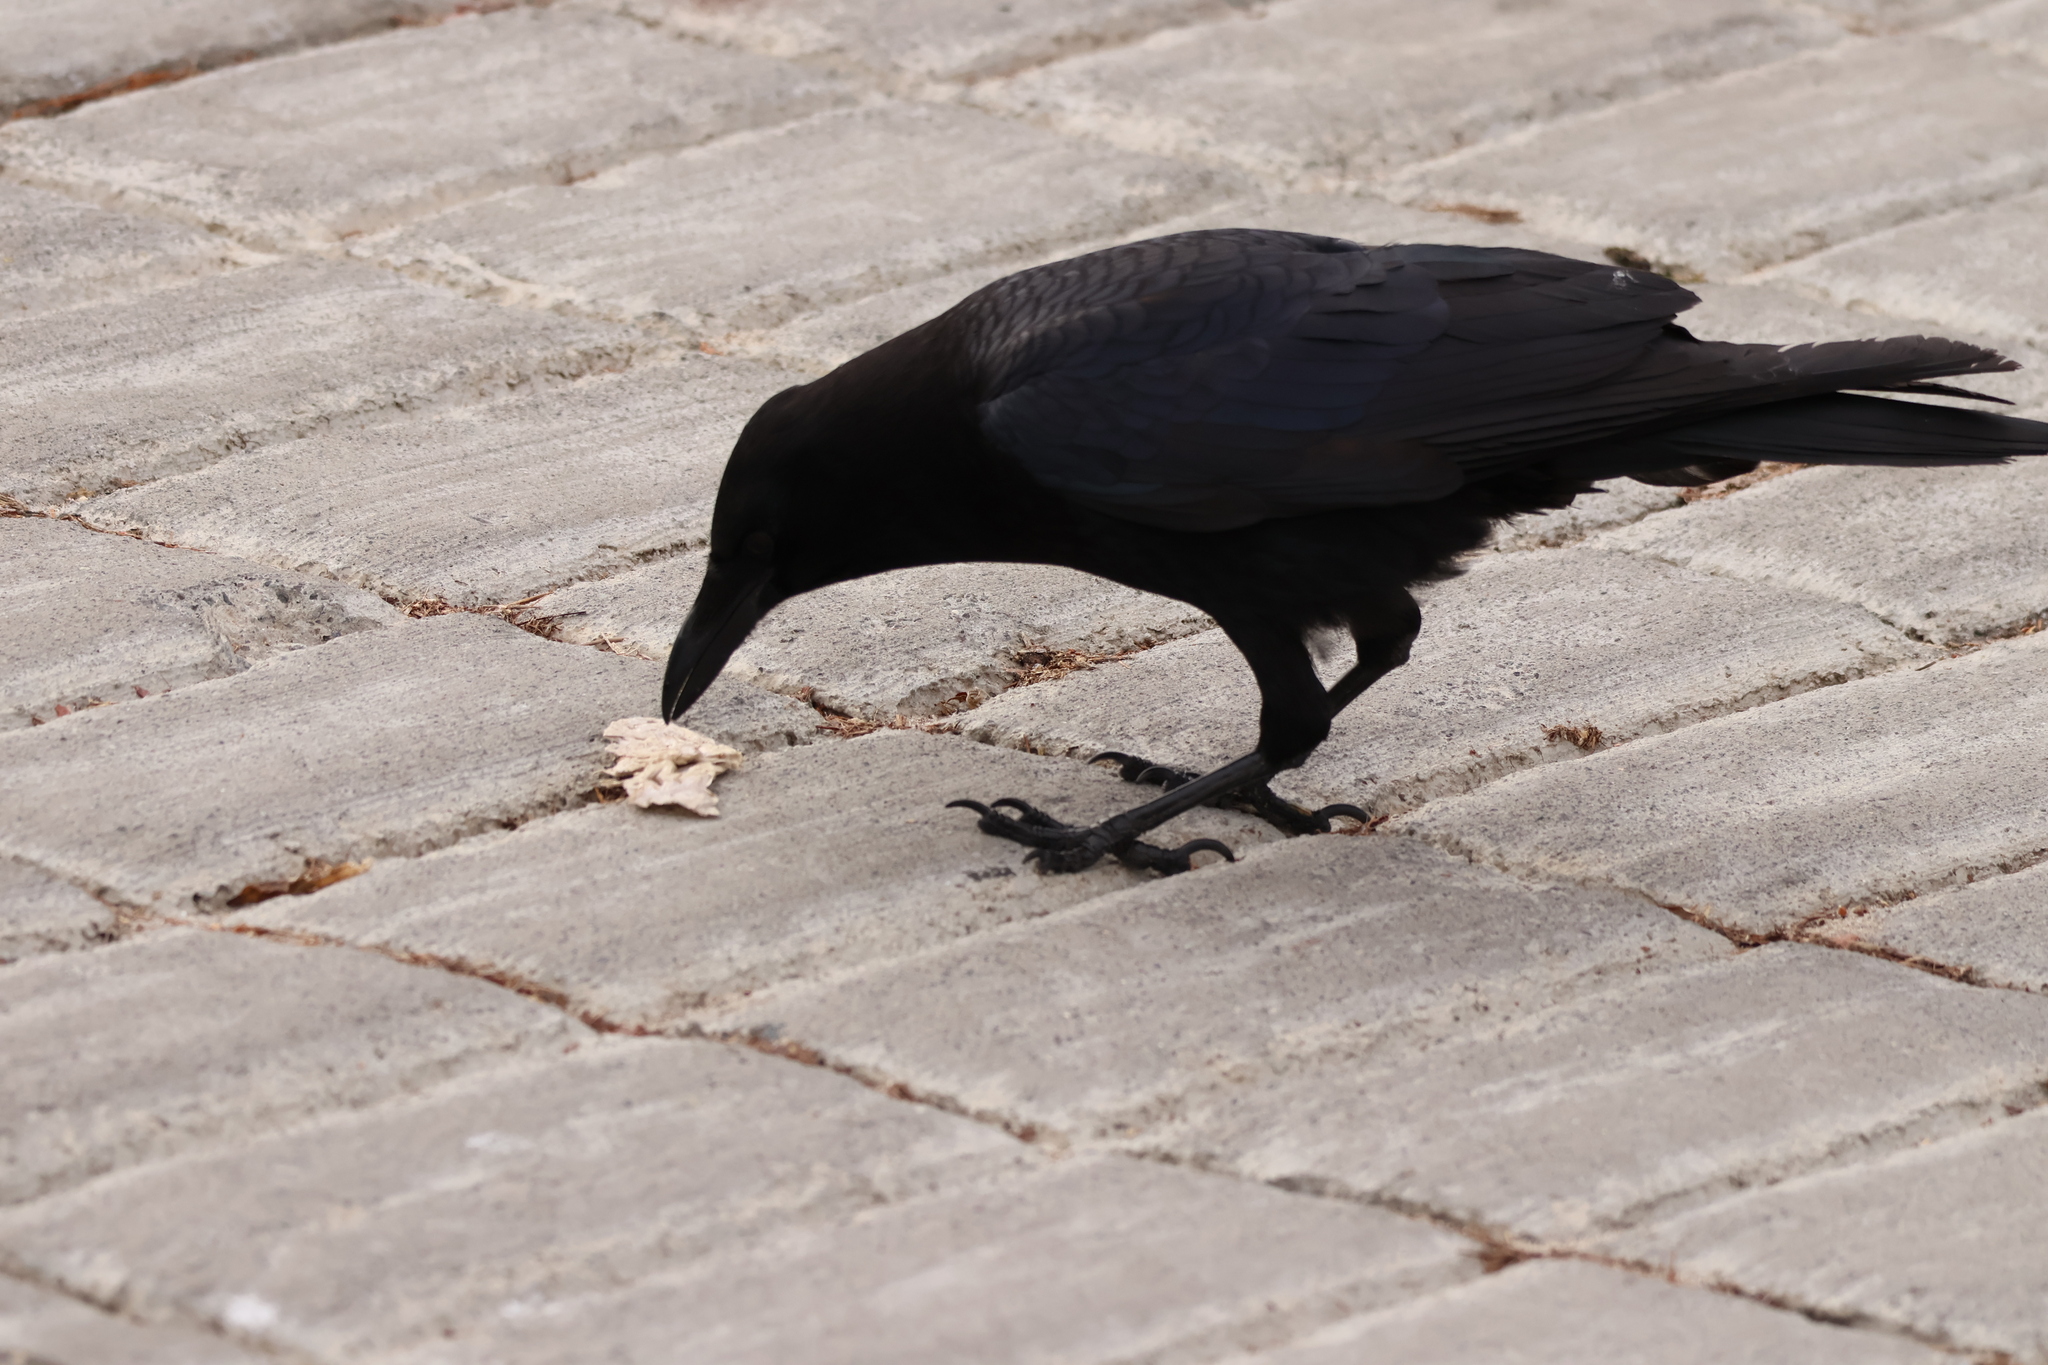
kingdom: Animalia
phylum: Chordata
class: Aves
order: Passeriformes
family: Corvidae
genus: Corvus
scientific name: Corvus brachyrhynchos
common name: American crow
